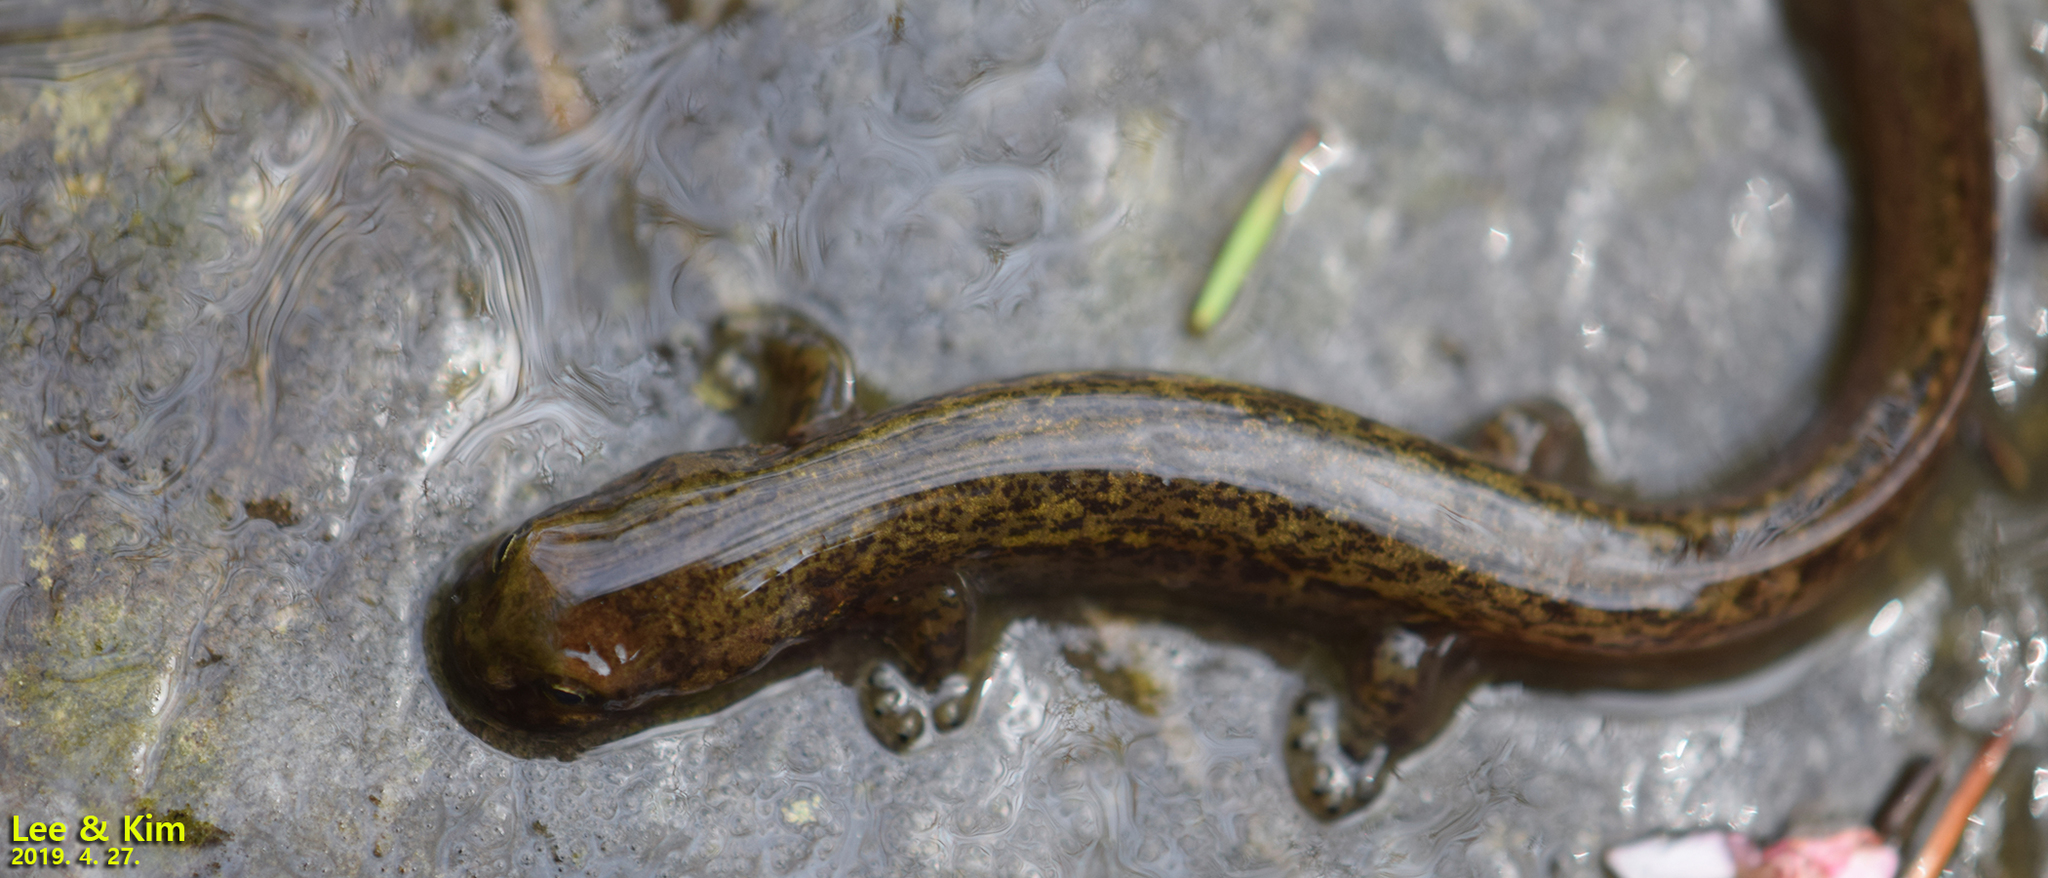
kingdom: Animalia
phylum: Chordata
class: Amphibia
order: Caudata
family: Hynobiidae
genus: Onychodactylus
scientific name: Onychodactylus koreanus
